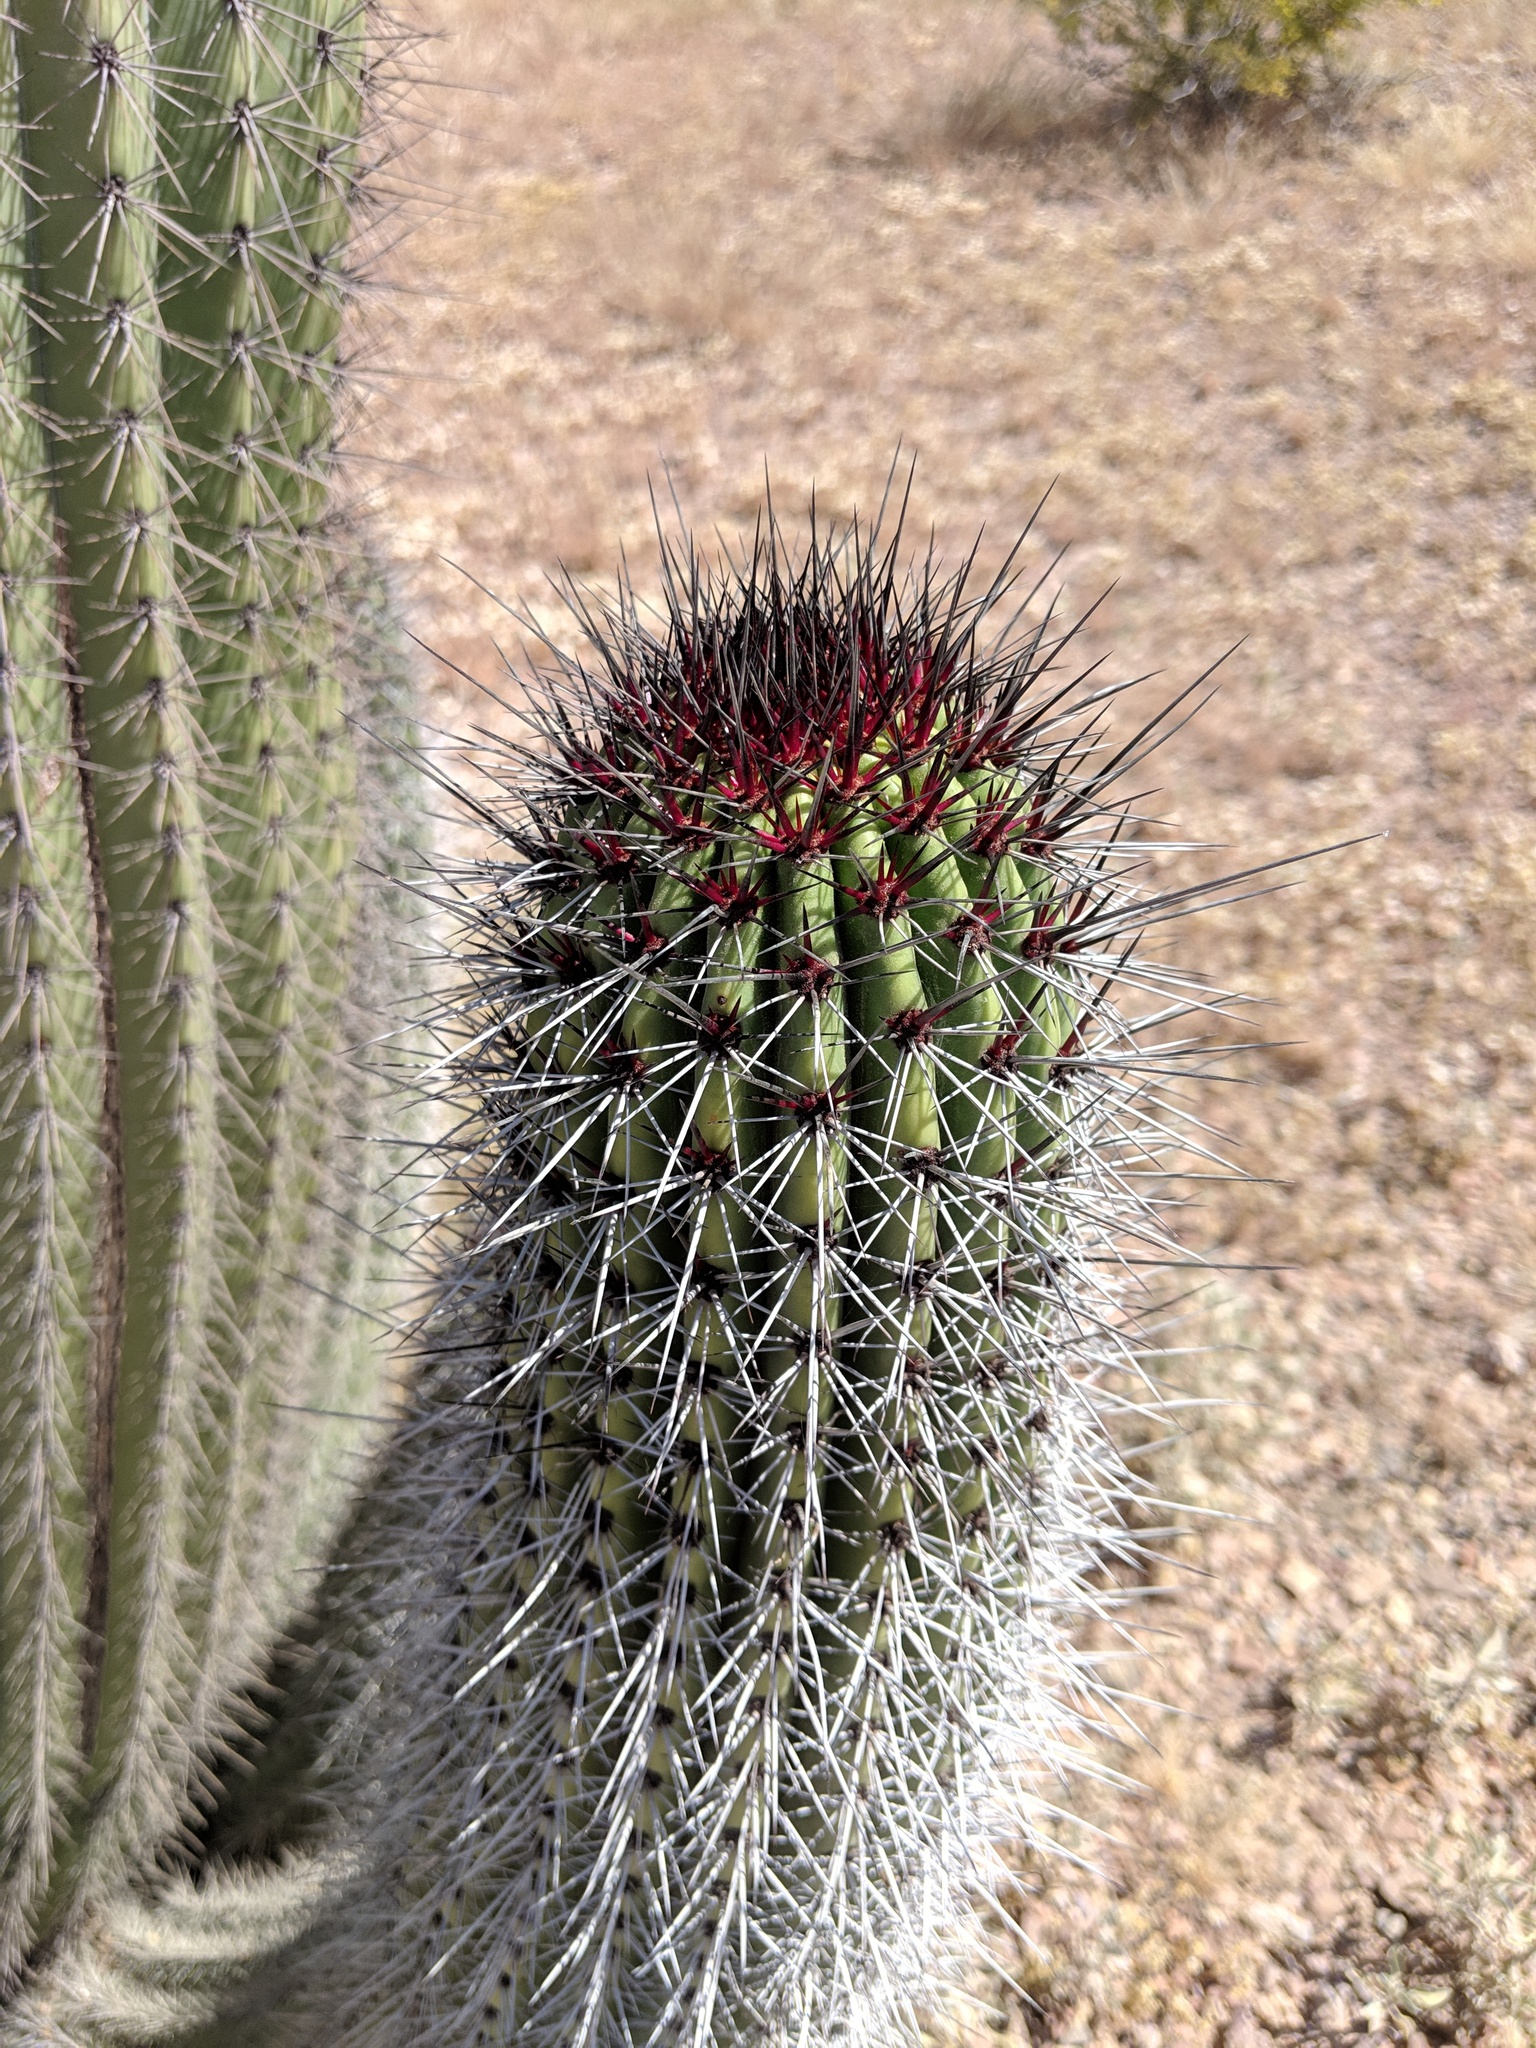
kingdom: Plantae
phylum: Tracheophyta
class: Magnoliopsida
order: Caryophyllales
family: Cactaceae
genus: Stenocereus
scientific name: Stenocereus thurberi
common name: Organ pipe cactus
